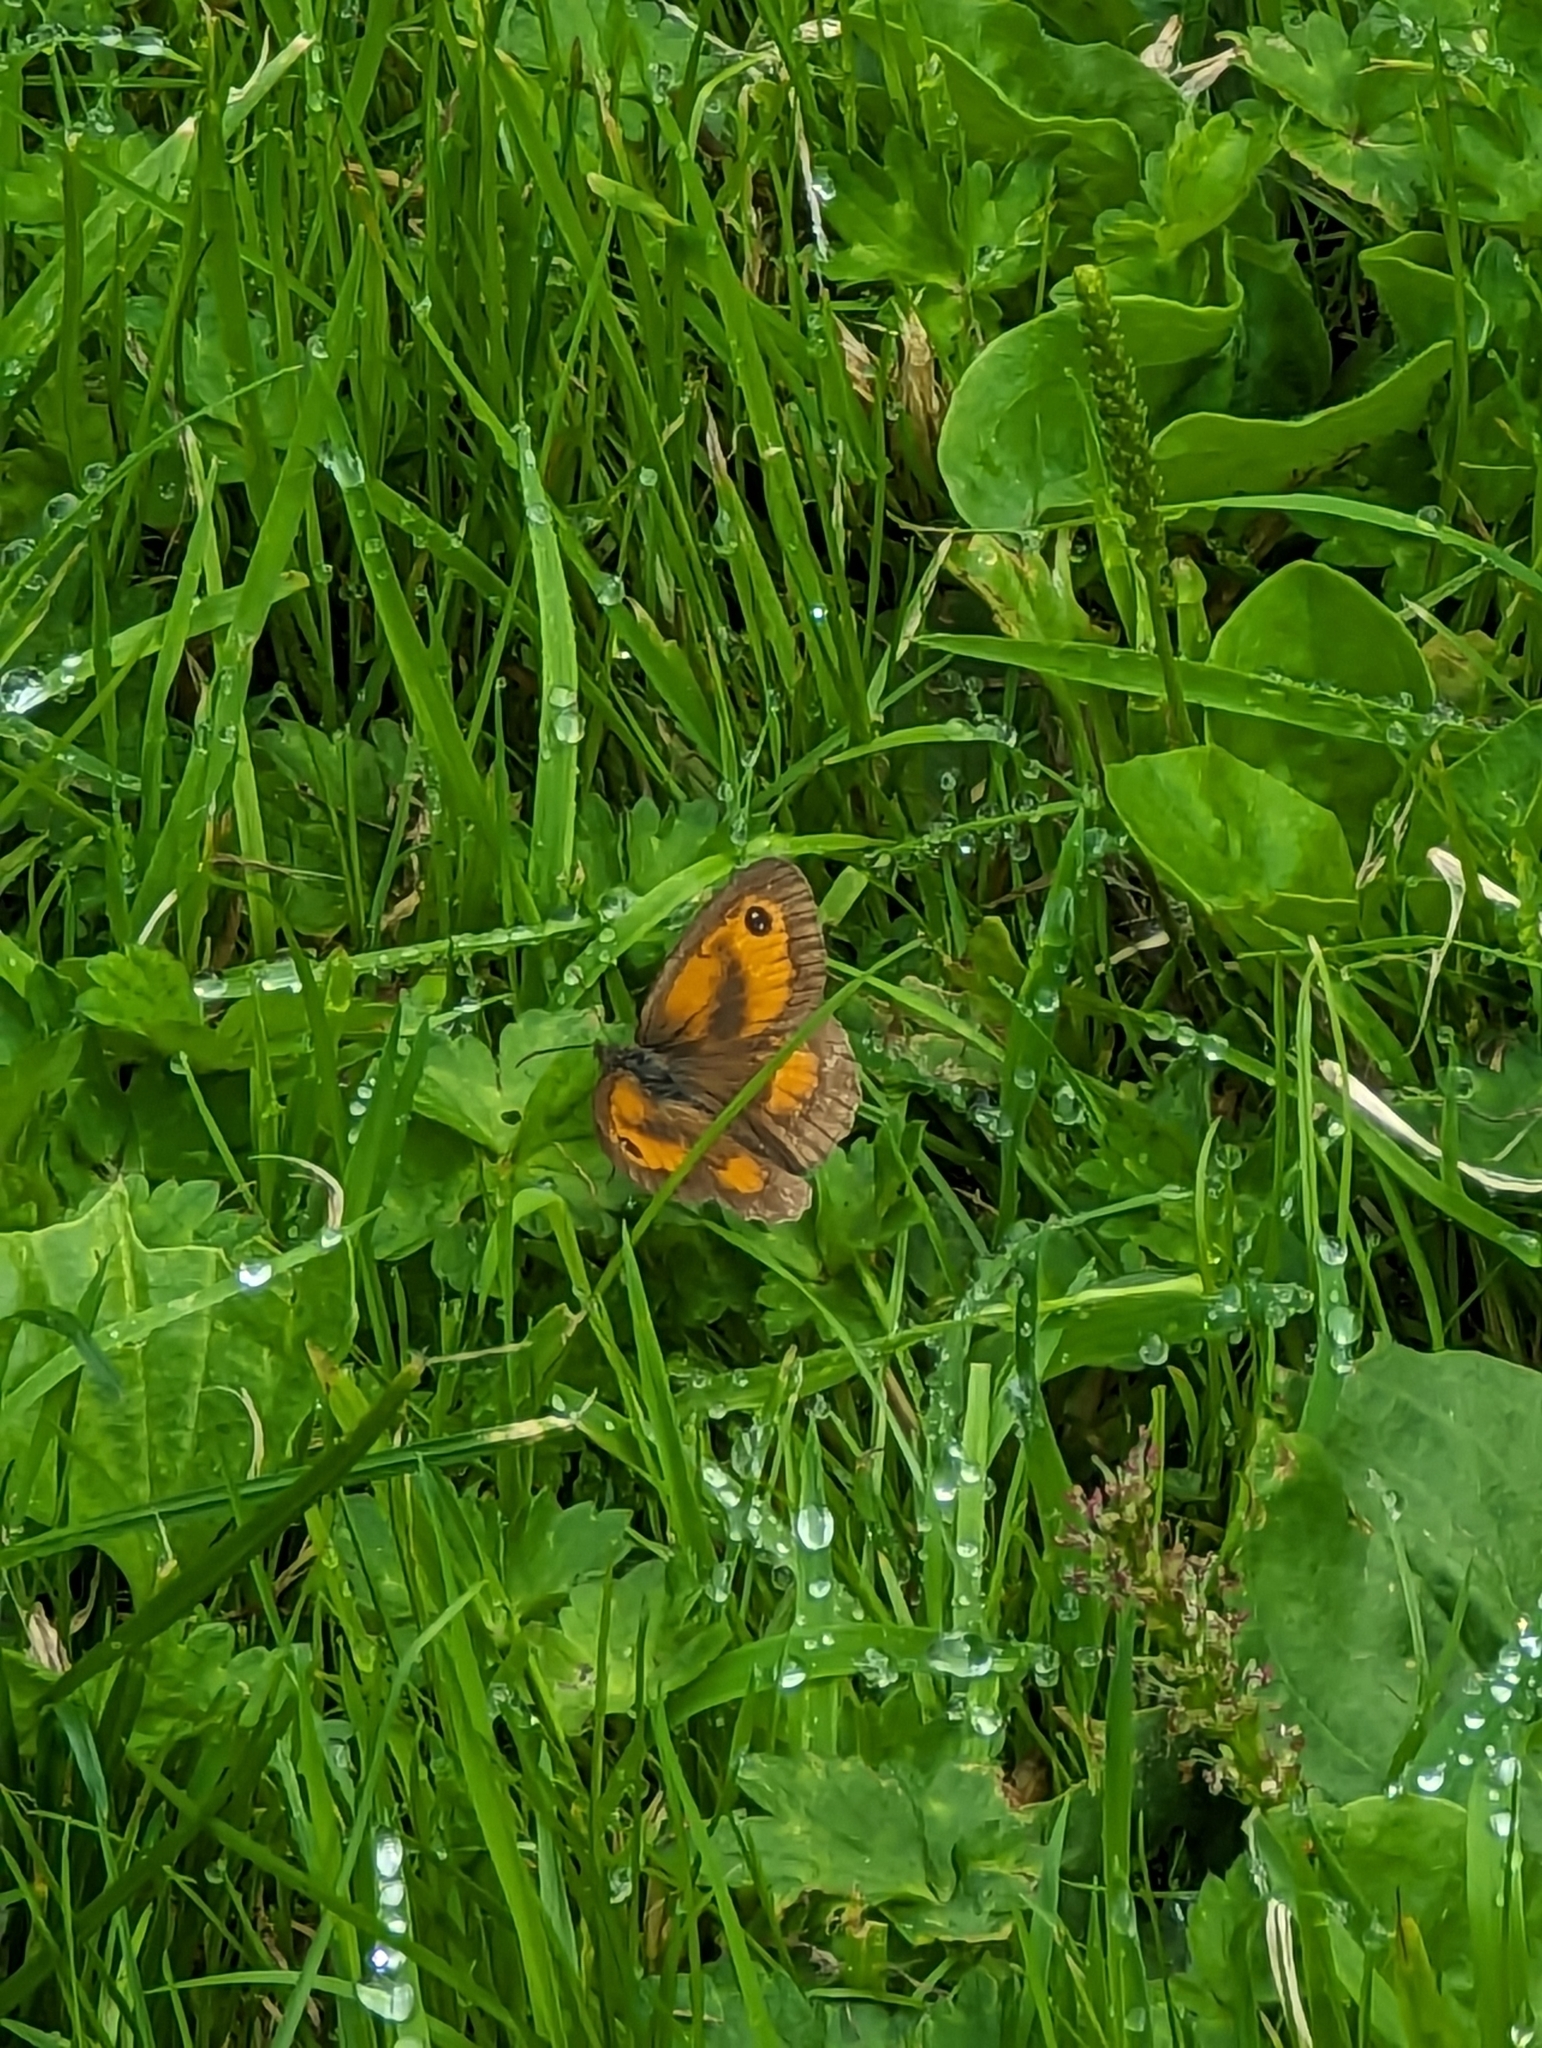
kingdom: Animalia
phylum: Arthropoda
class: Insecta
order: Lepidoptera
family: Nymphalidae
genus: Pyronia
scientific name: Pyronia tithonus
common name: Gatekeeper
